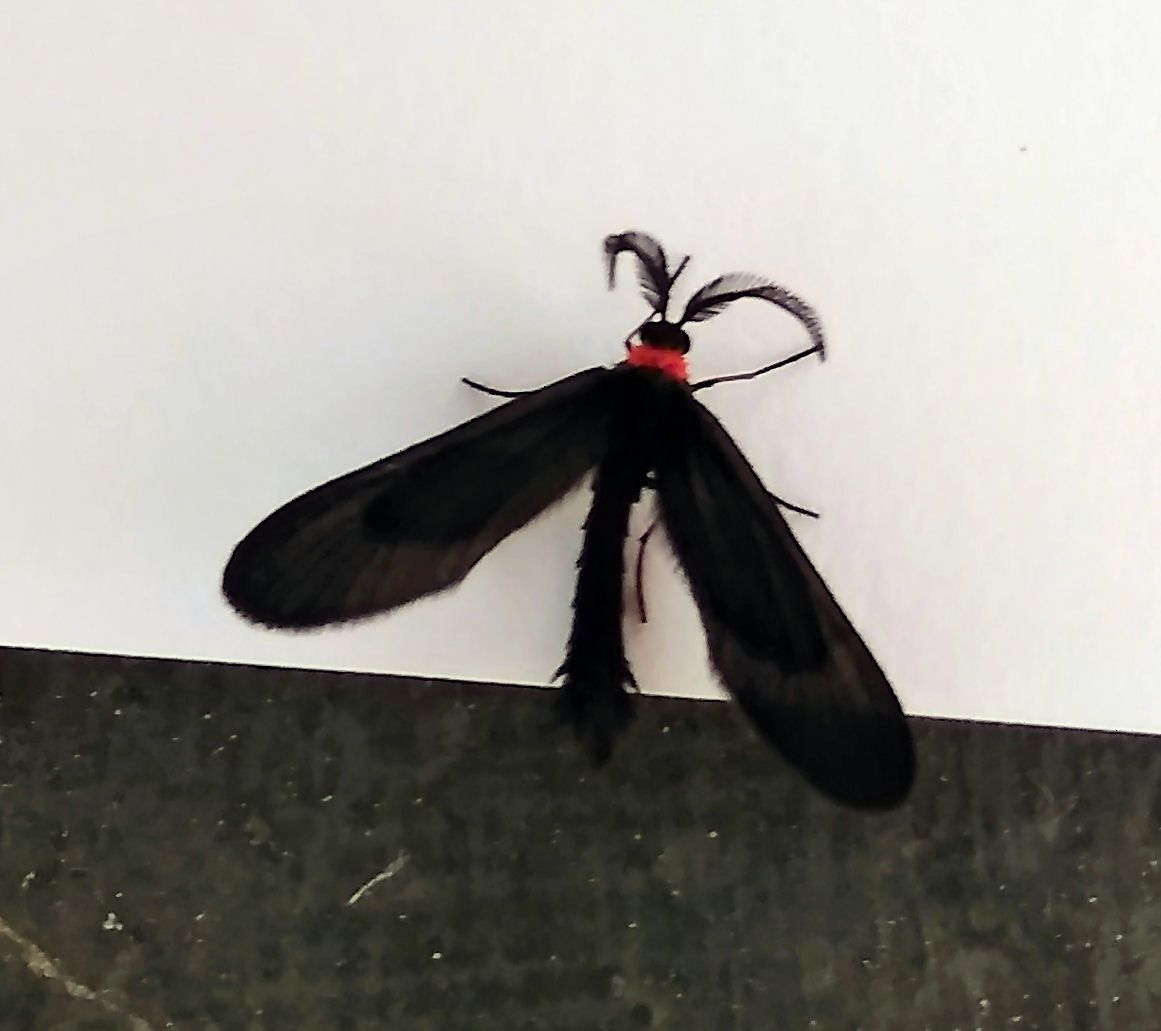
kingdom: Animalia
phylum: Arthropoda
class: Insecta
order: Lepidoptera
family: Zygaenidae
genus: Harrisina
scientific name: Harrisina americana
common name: Grapeleaf skeletonizer moth
